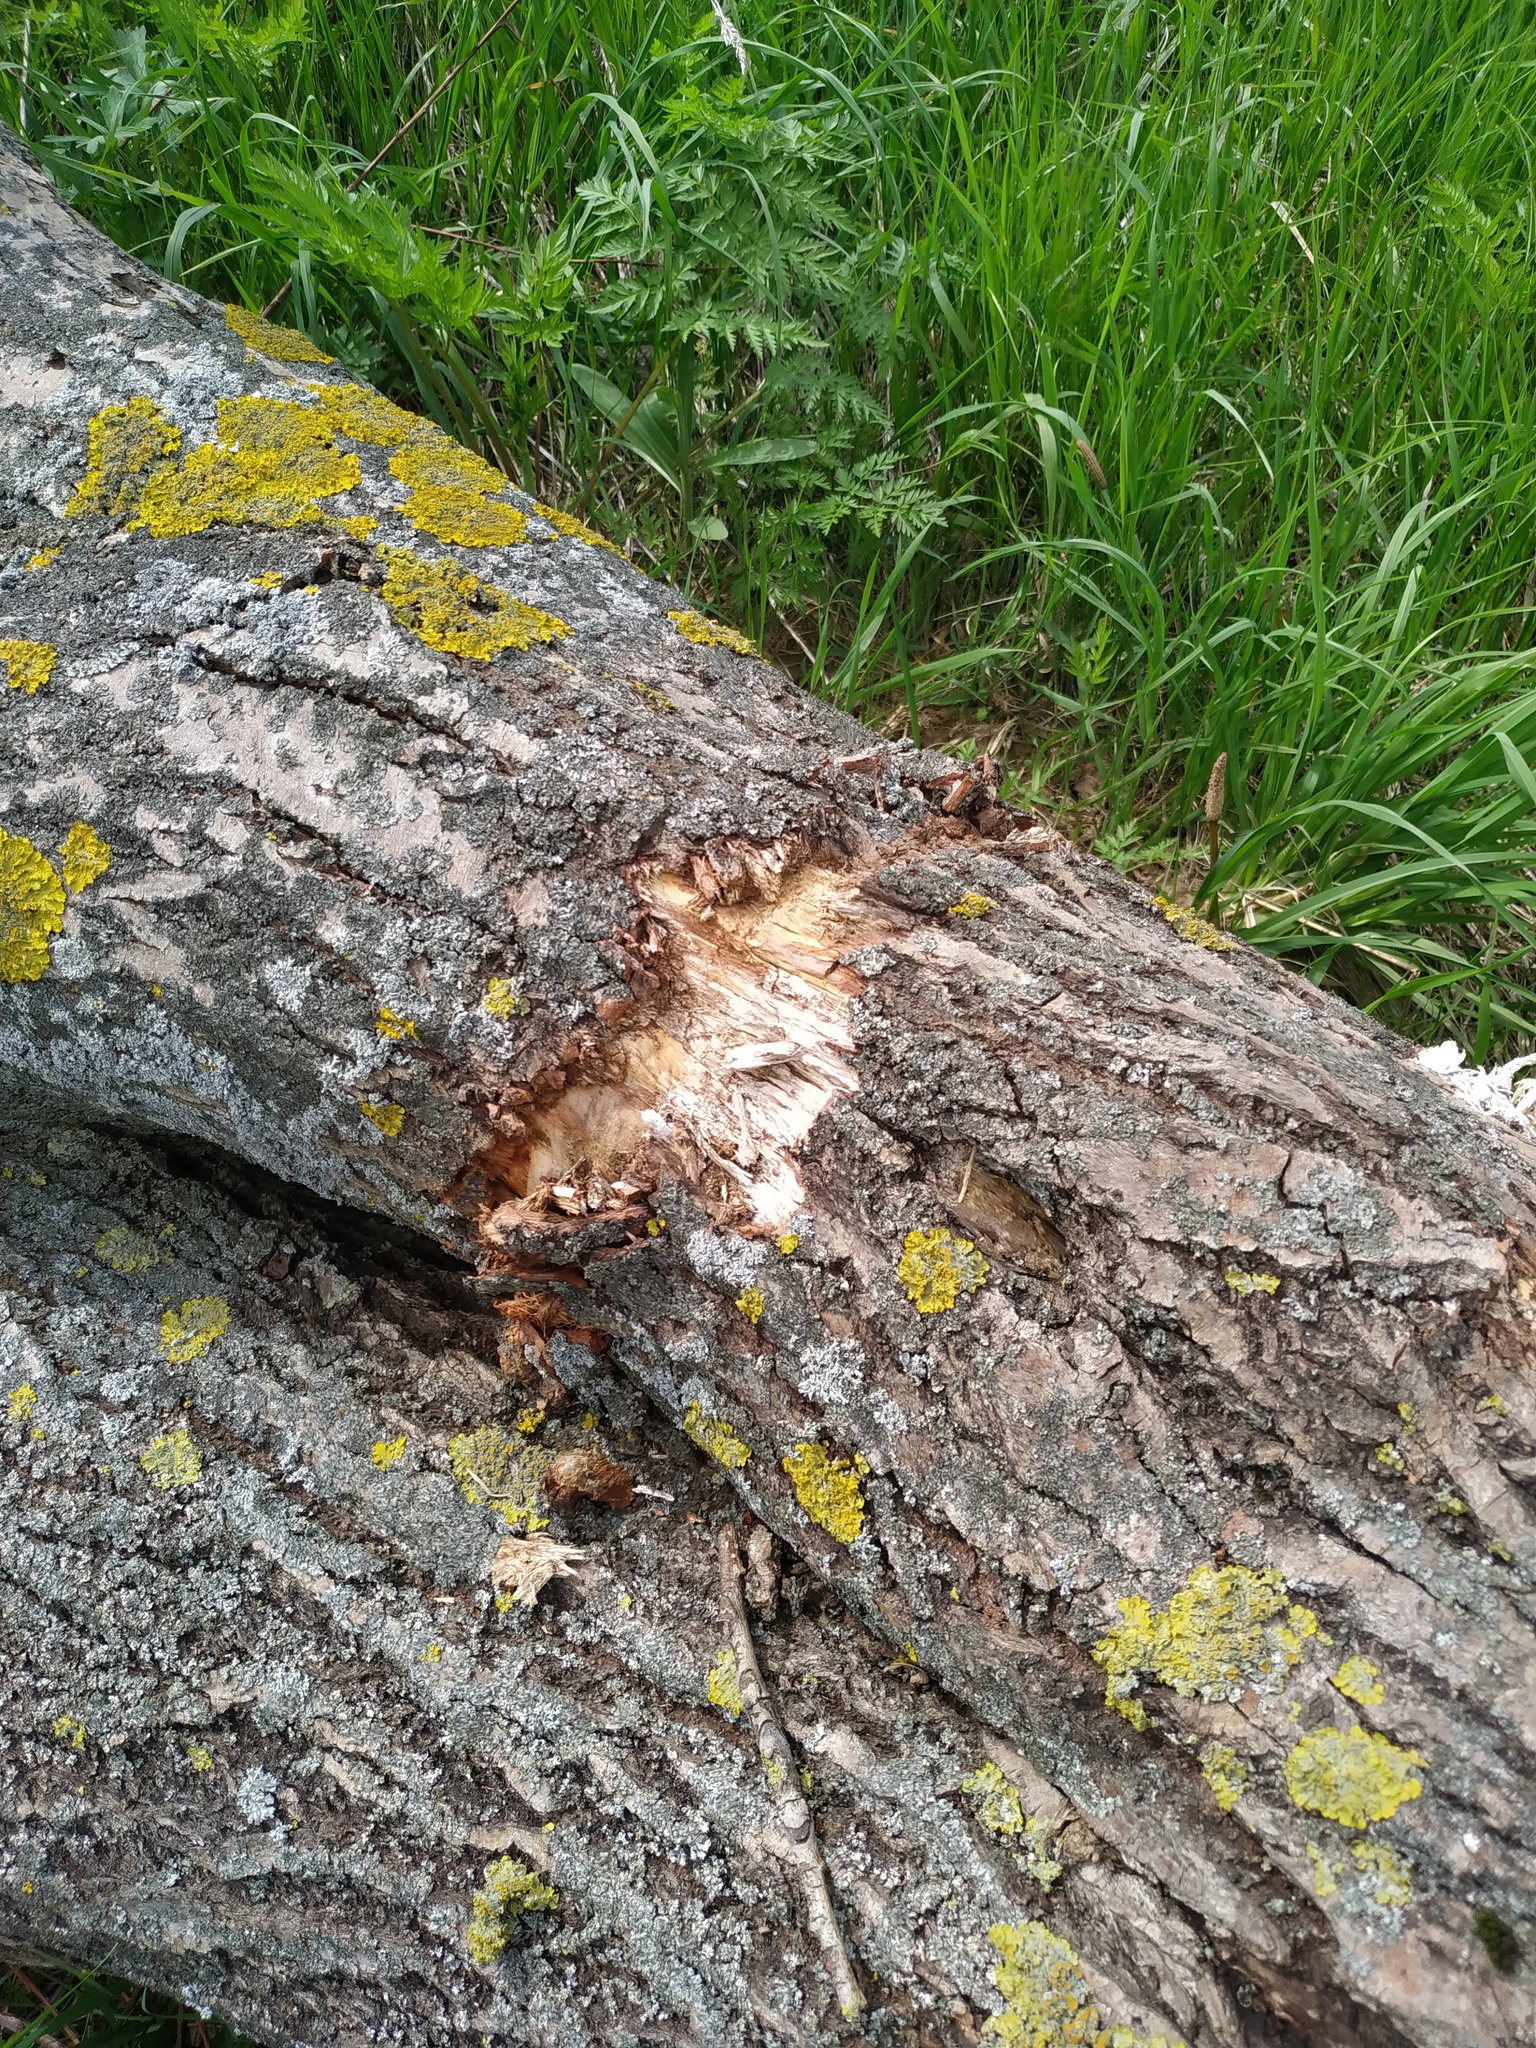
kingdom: Animalia
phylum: Chordata
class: Mammalia
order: Rodentia
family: Castoridae
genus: Castor
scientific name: Castor fiber
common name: Eurasian beaver
